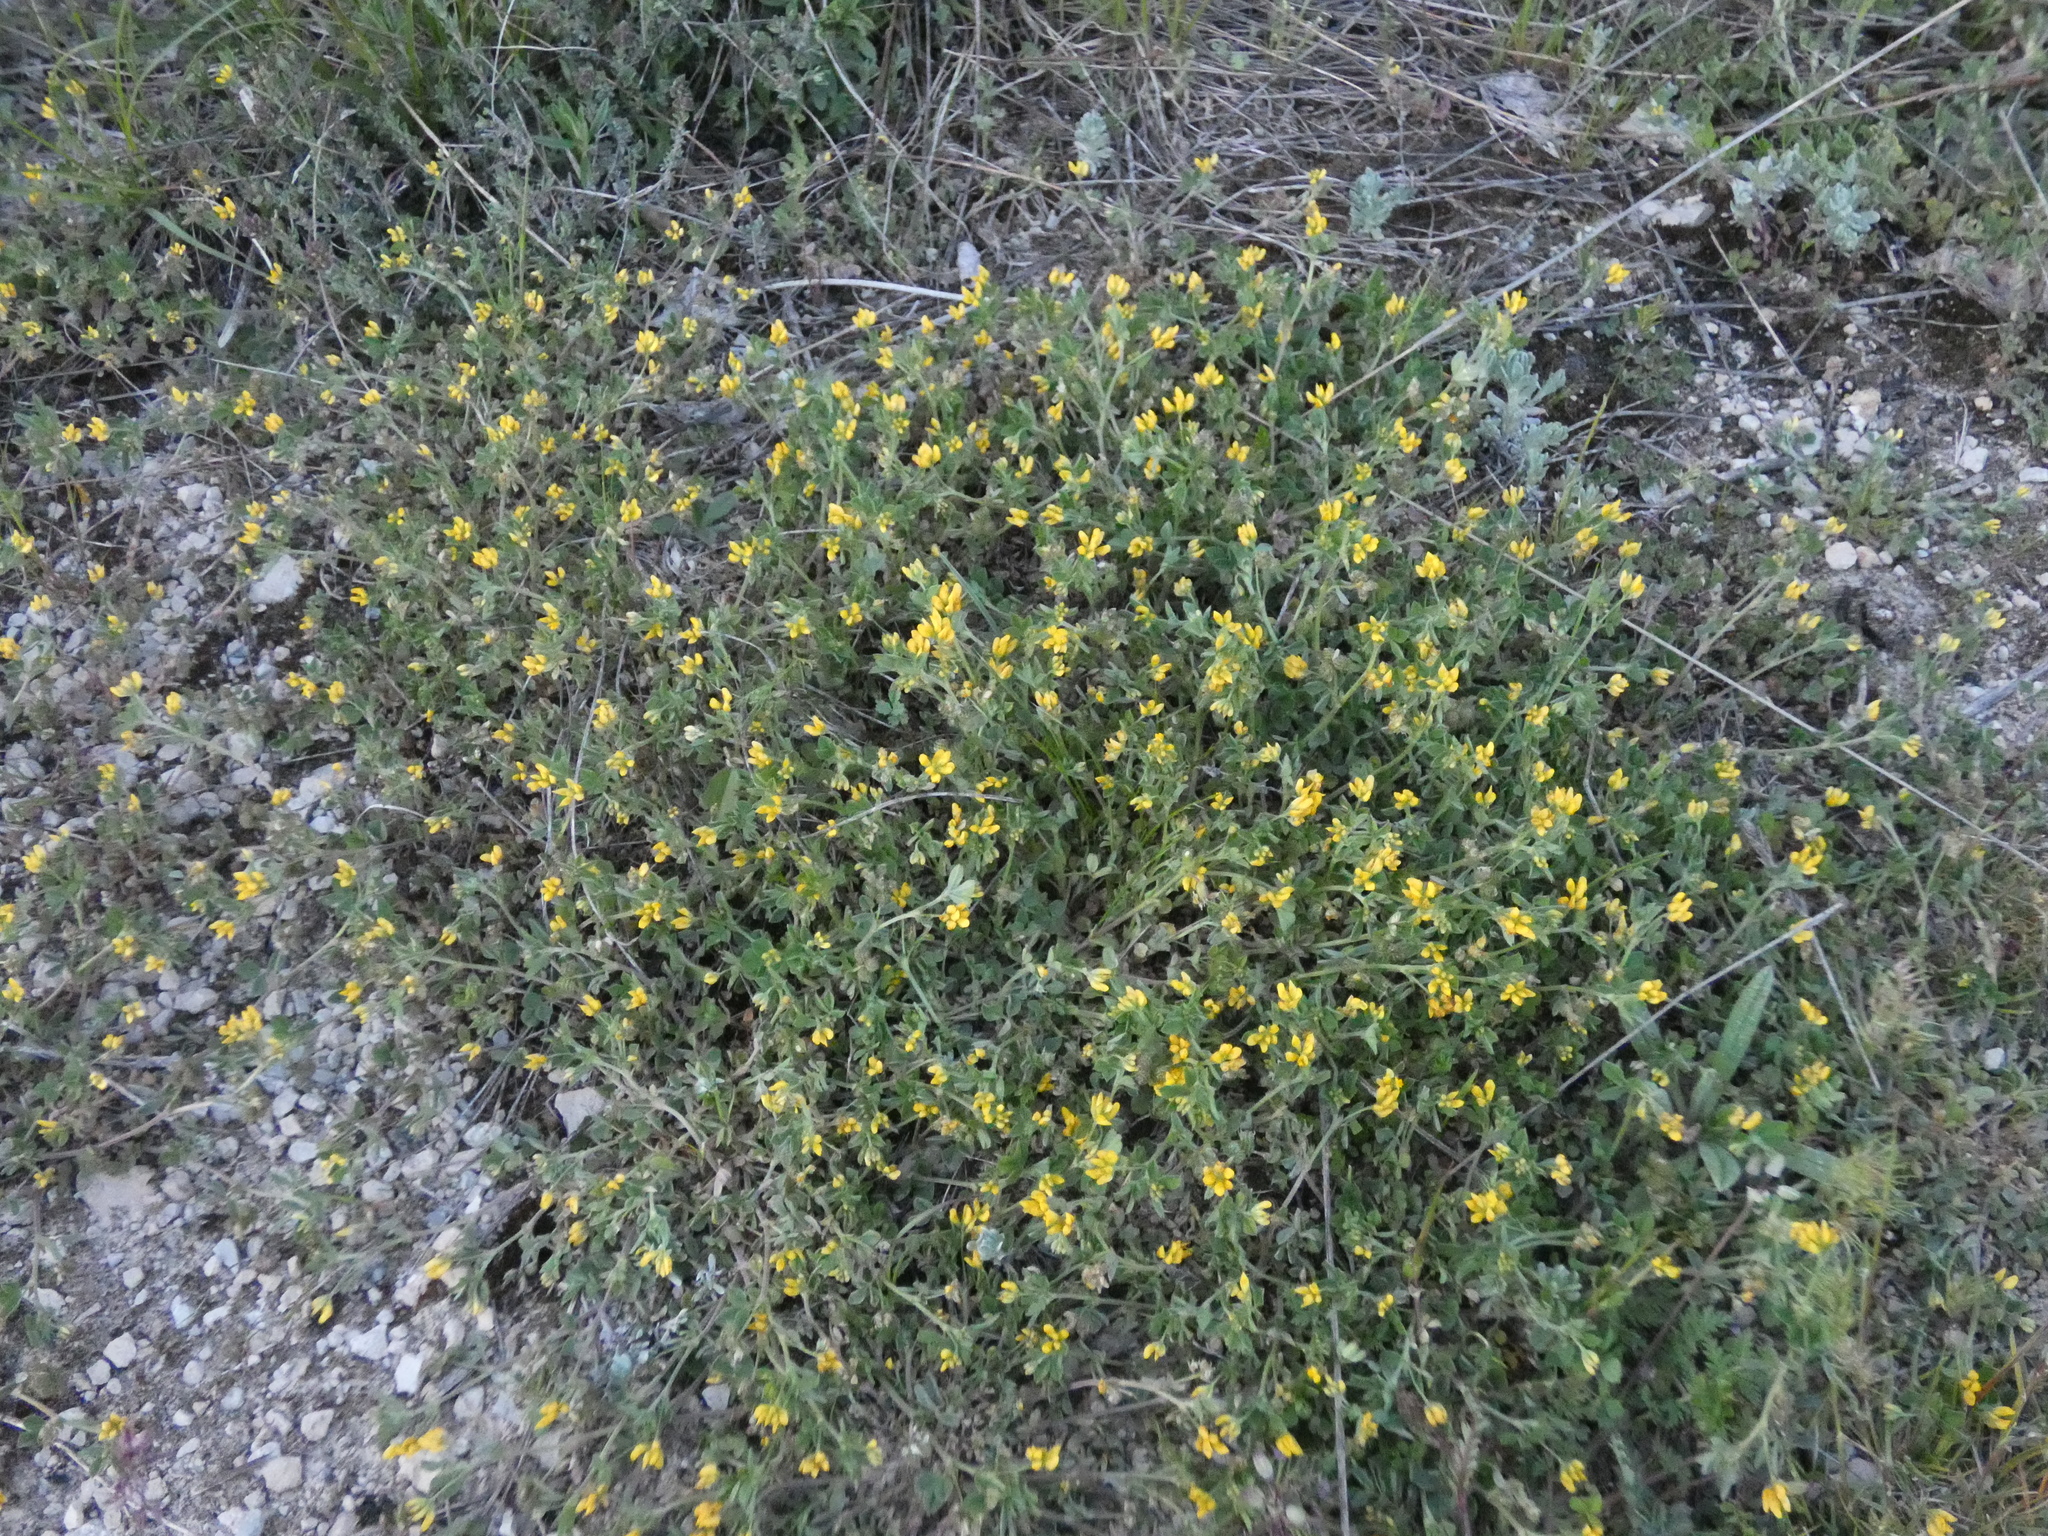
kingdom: Plantae
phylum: Tracheophyta
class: Magnoliopsida
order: Fabales
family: Fabaceae
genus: Medicago
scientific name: Medicago minima
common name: Little bur-clover
